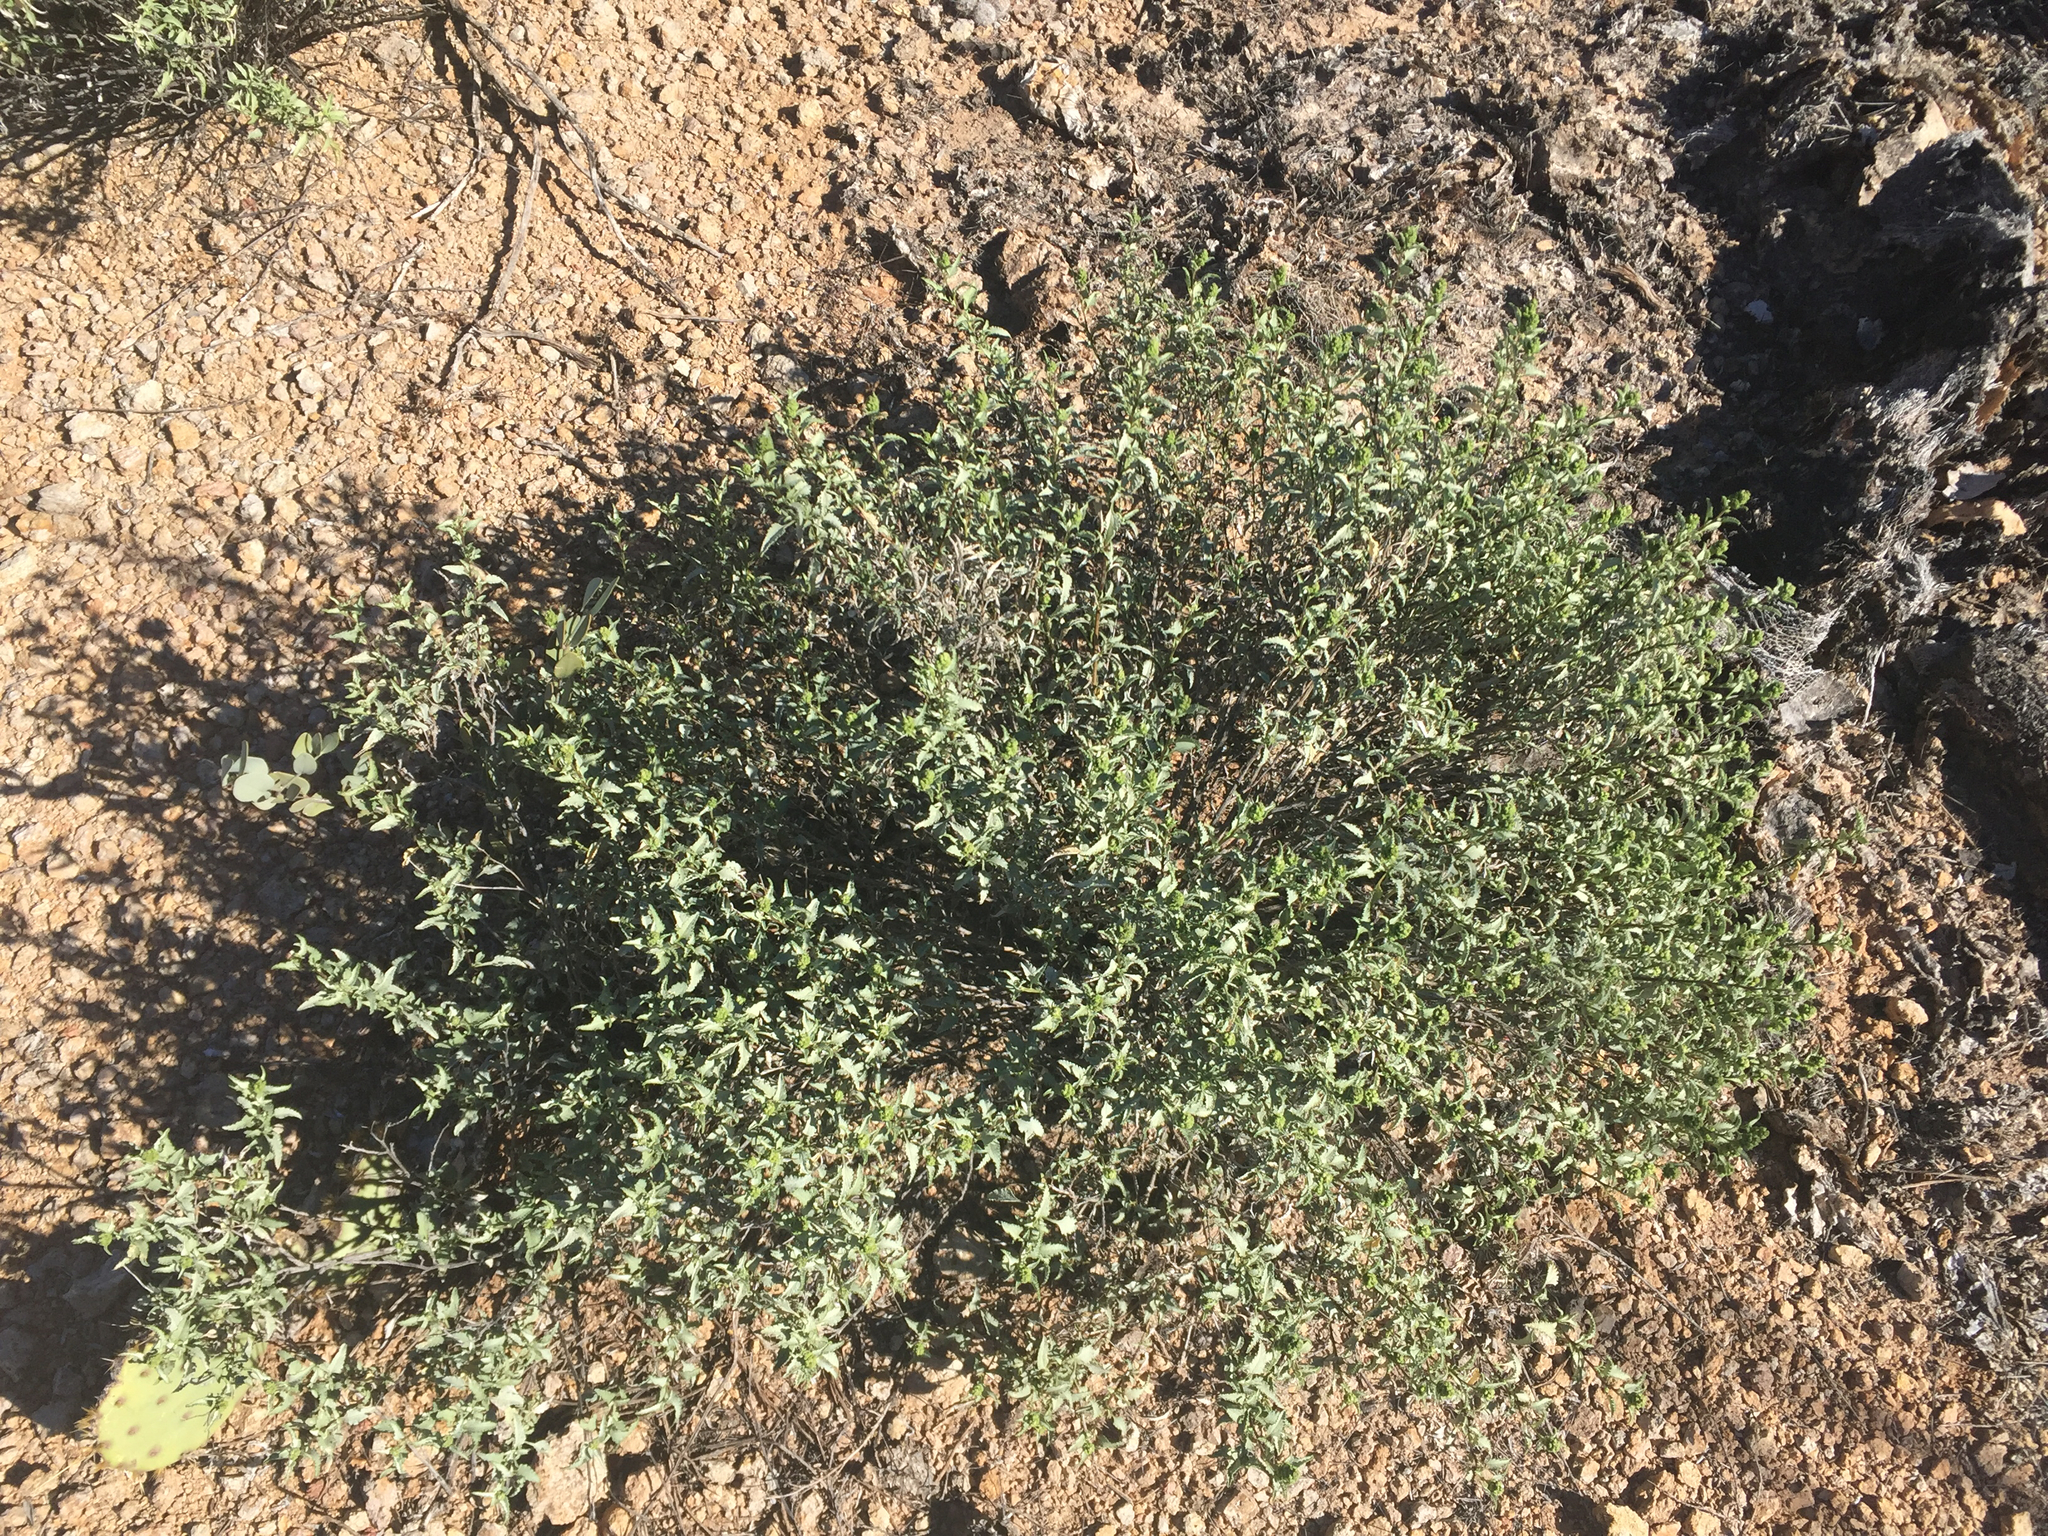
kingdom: Plantae
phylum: Tracheophyta
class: Magnoliopsida
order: Asterales
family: Asteraceae
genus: Ambrosia
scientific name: Ambrosia deltoidea
